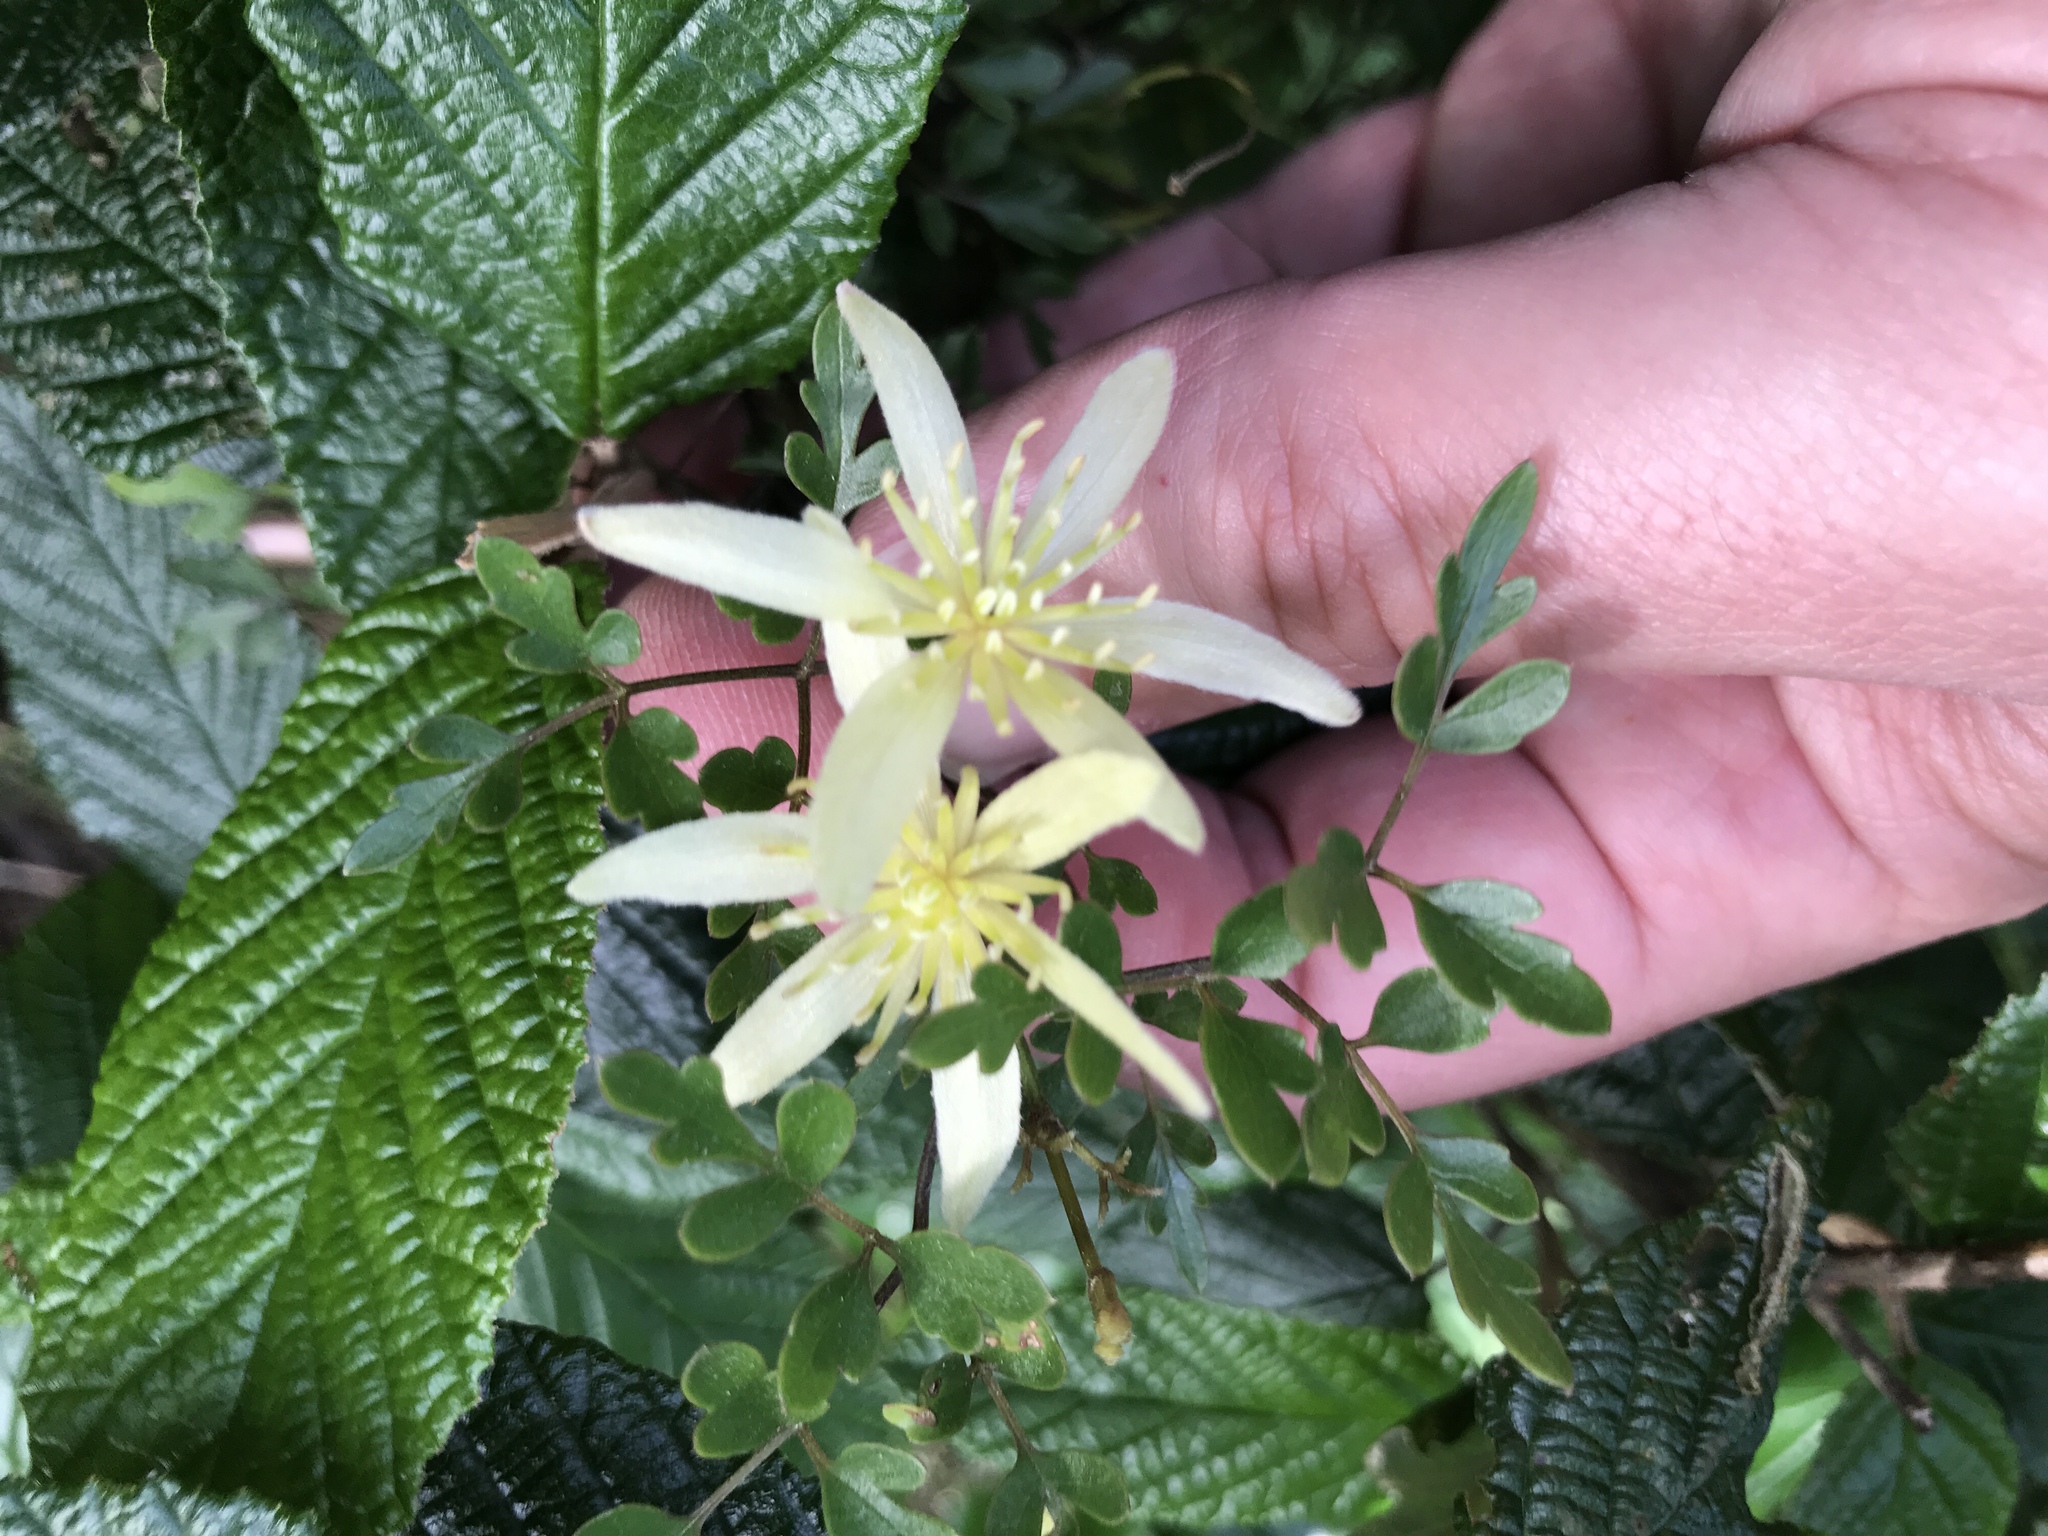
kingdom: Plantae
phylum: Tracheophyta
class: Magnoliopsida
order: Ranunculales
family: Ranunculaceae
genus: Clematis
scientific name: Clematis forsteri
